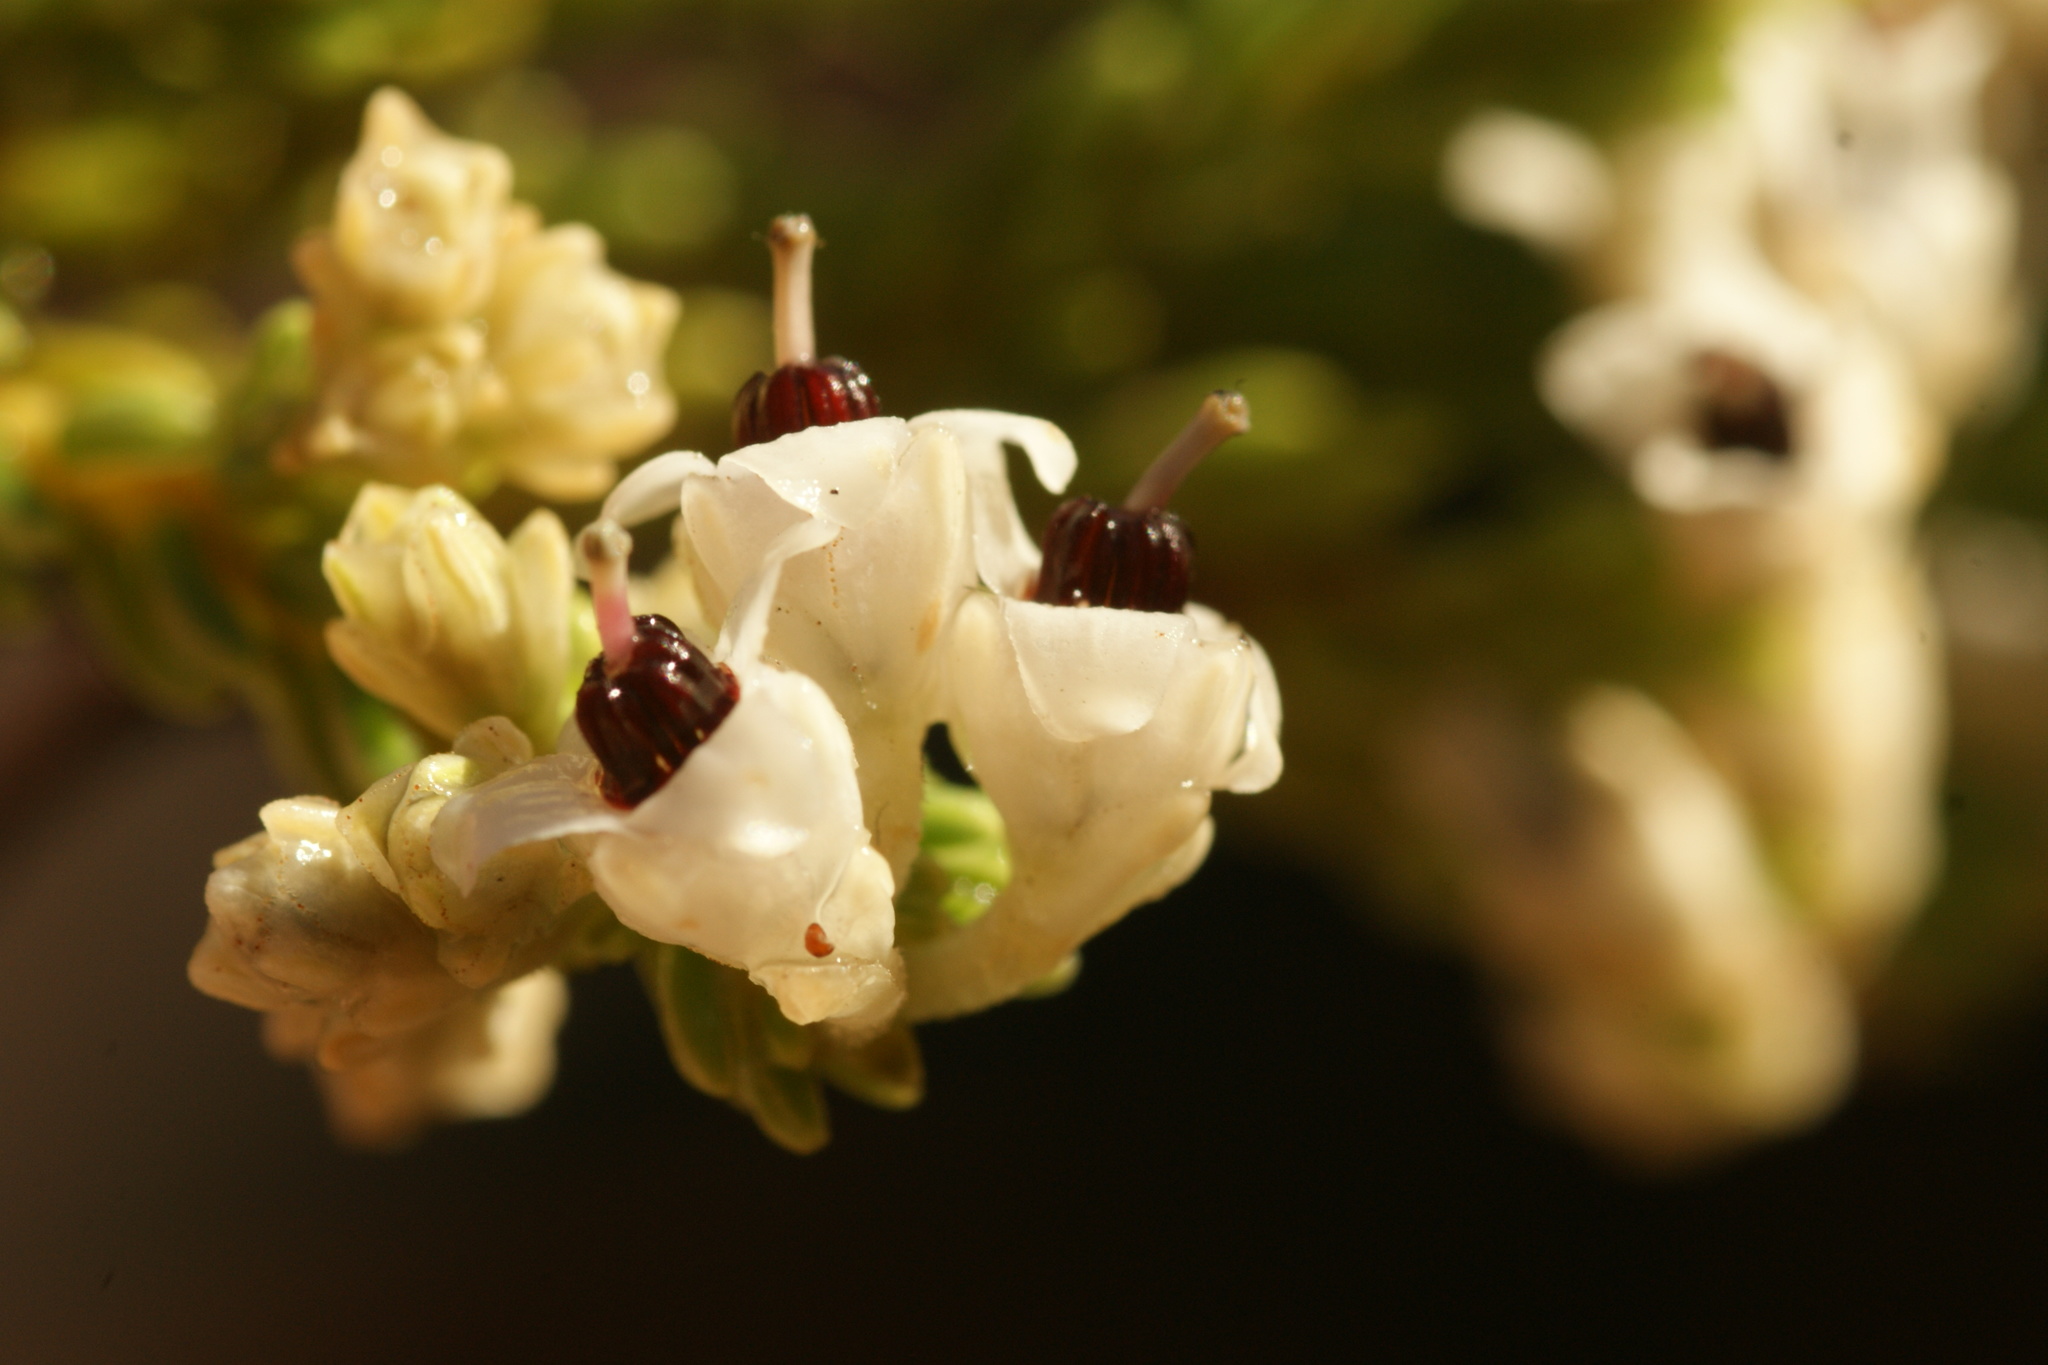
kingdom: Plantae
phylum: Tracheophyta
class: Magnoliopsida
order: Ericales
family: Ericaceae
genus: Erica
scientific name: Erica calycina
